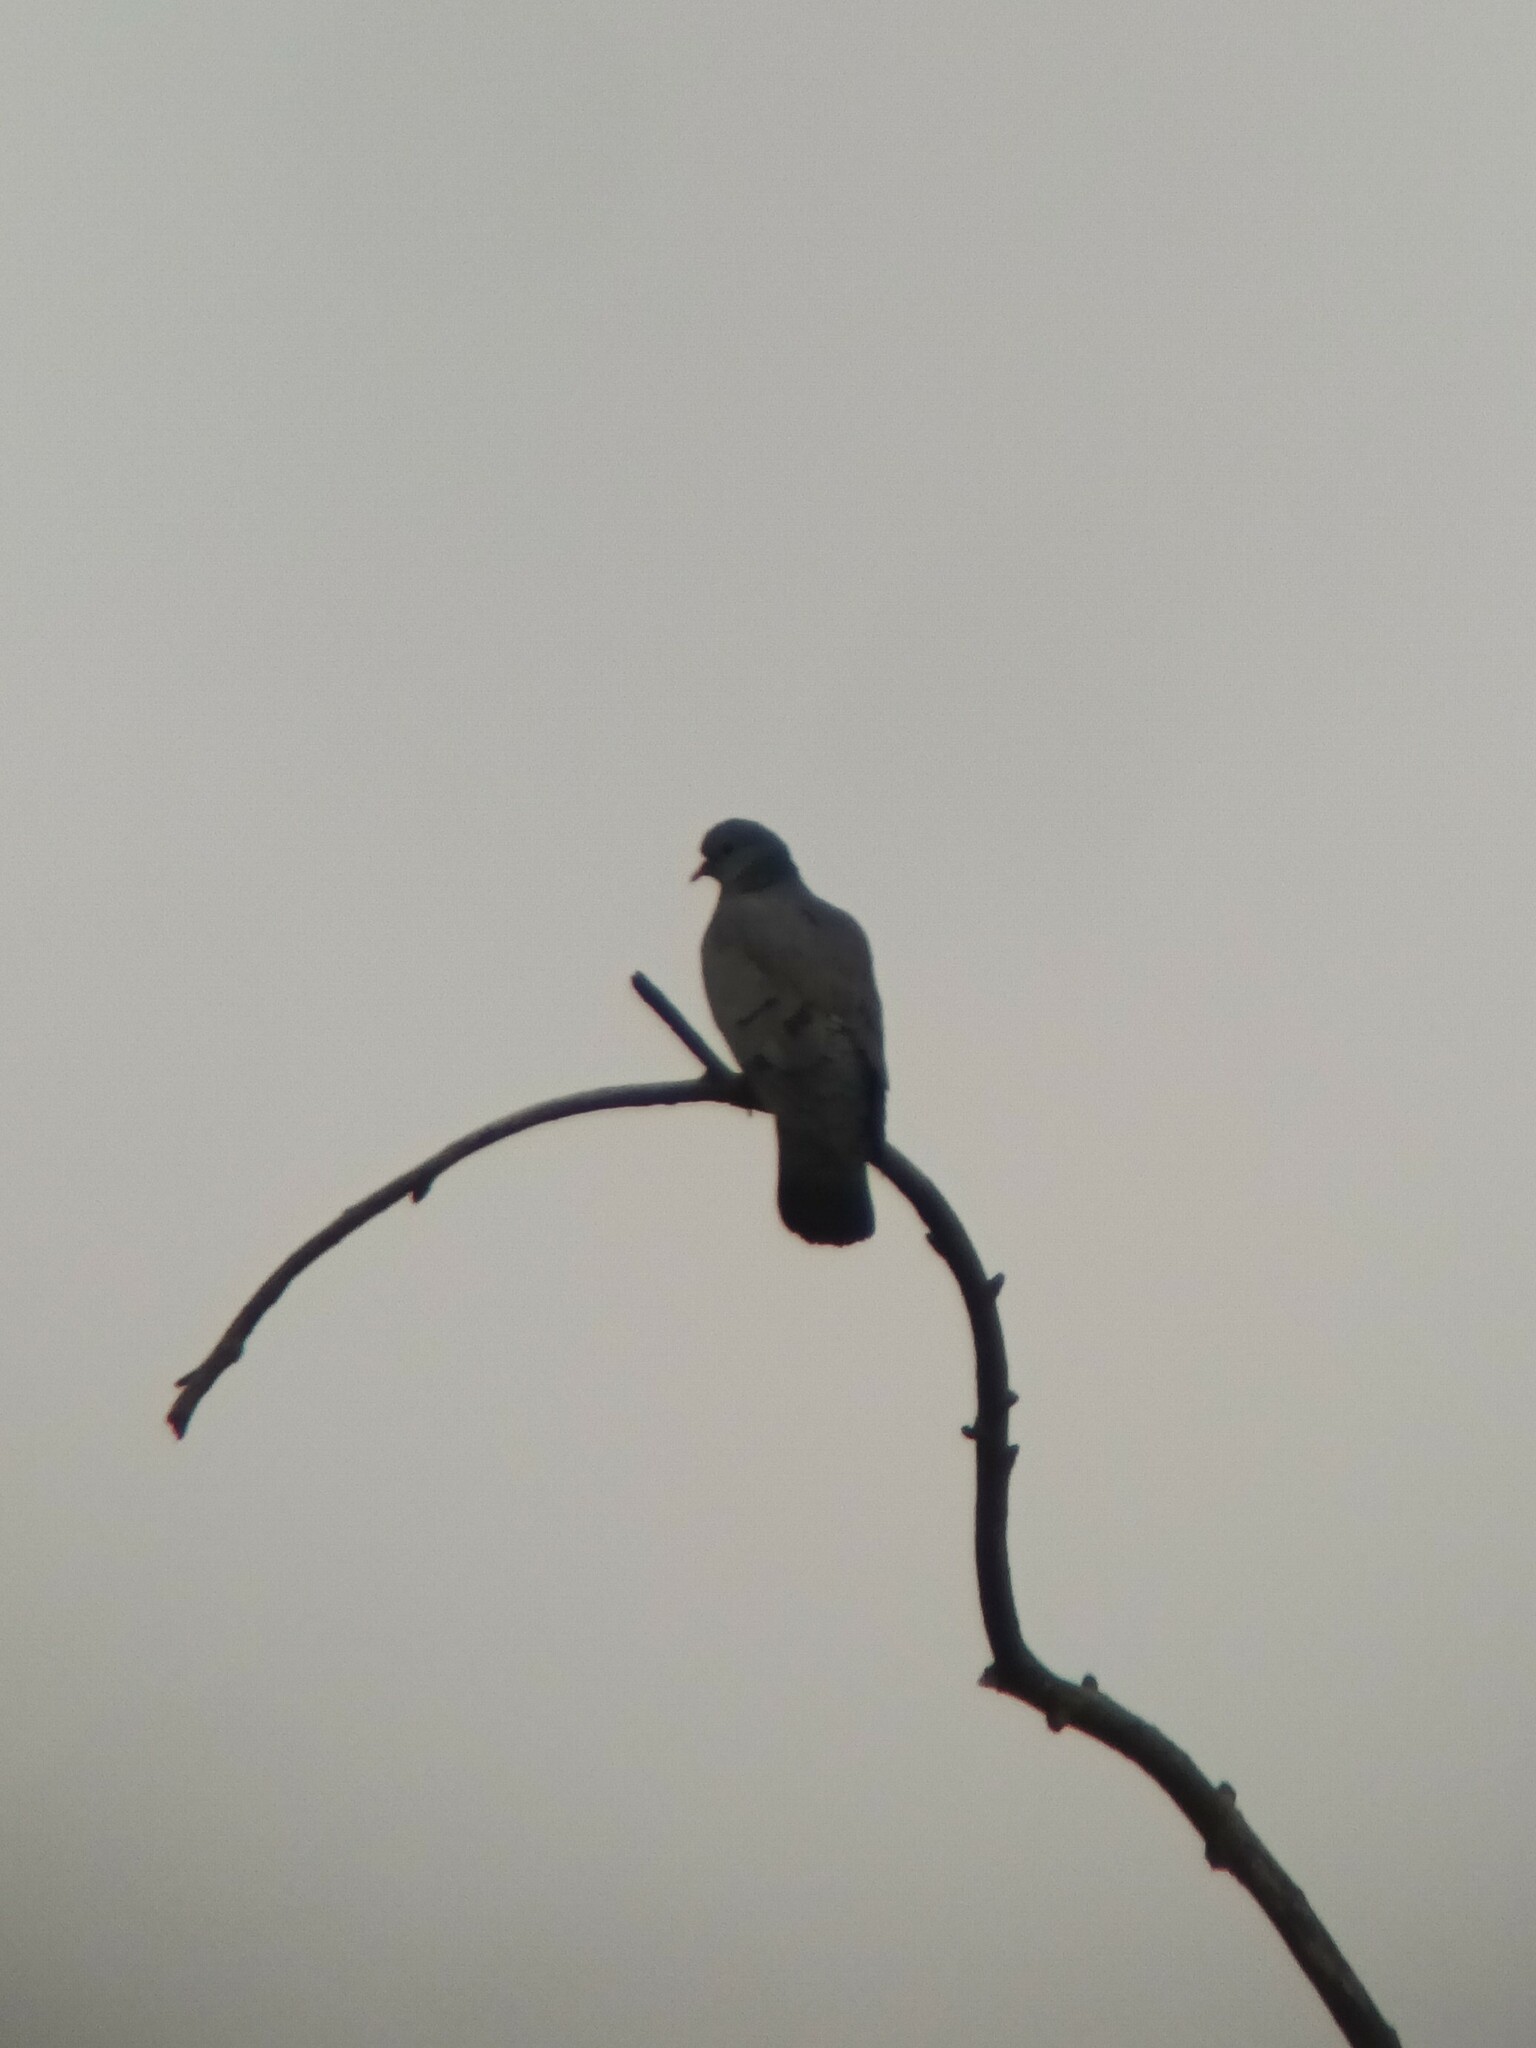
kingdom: Animalia
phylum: Chordata
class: Aves
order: Columbiformes
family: Columbidae
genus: Columba
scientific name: Columba oenas
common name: Stock dove
